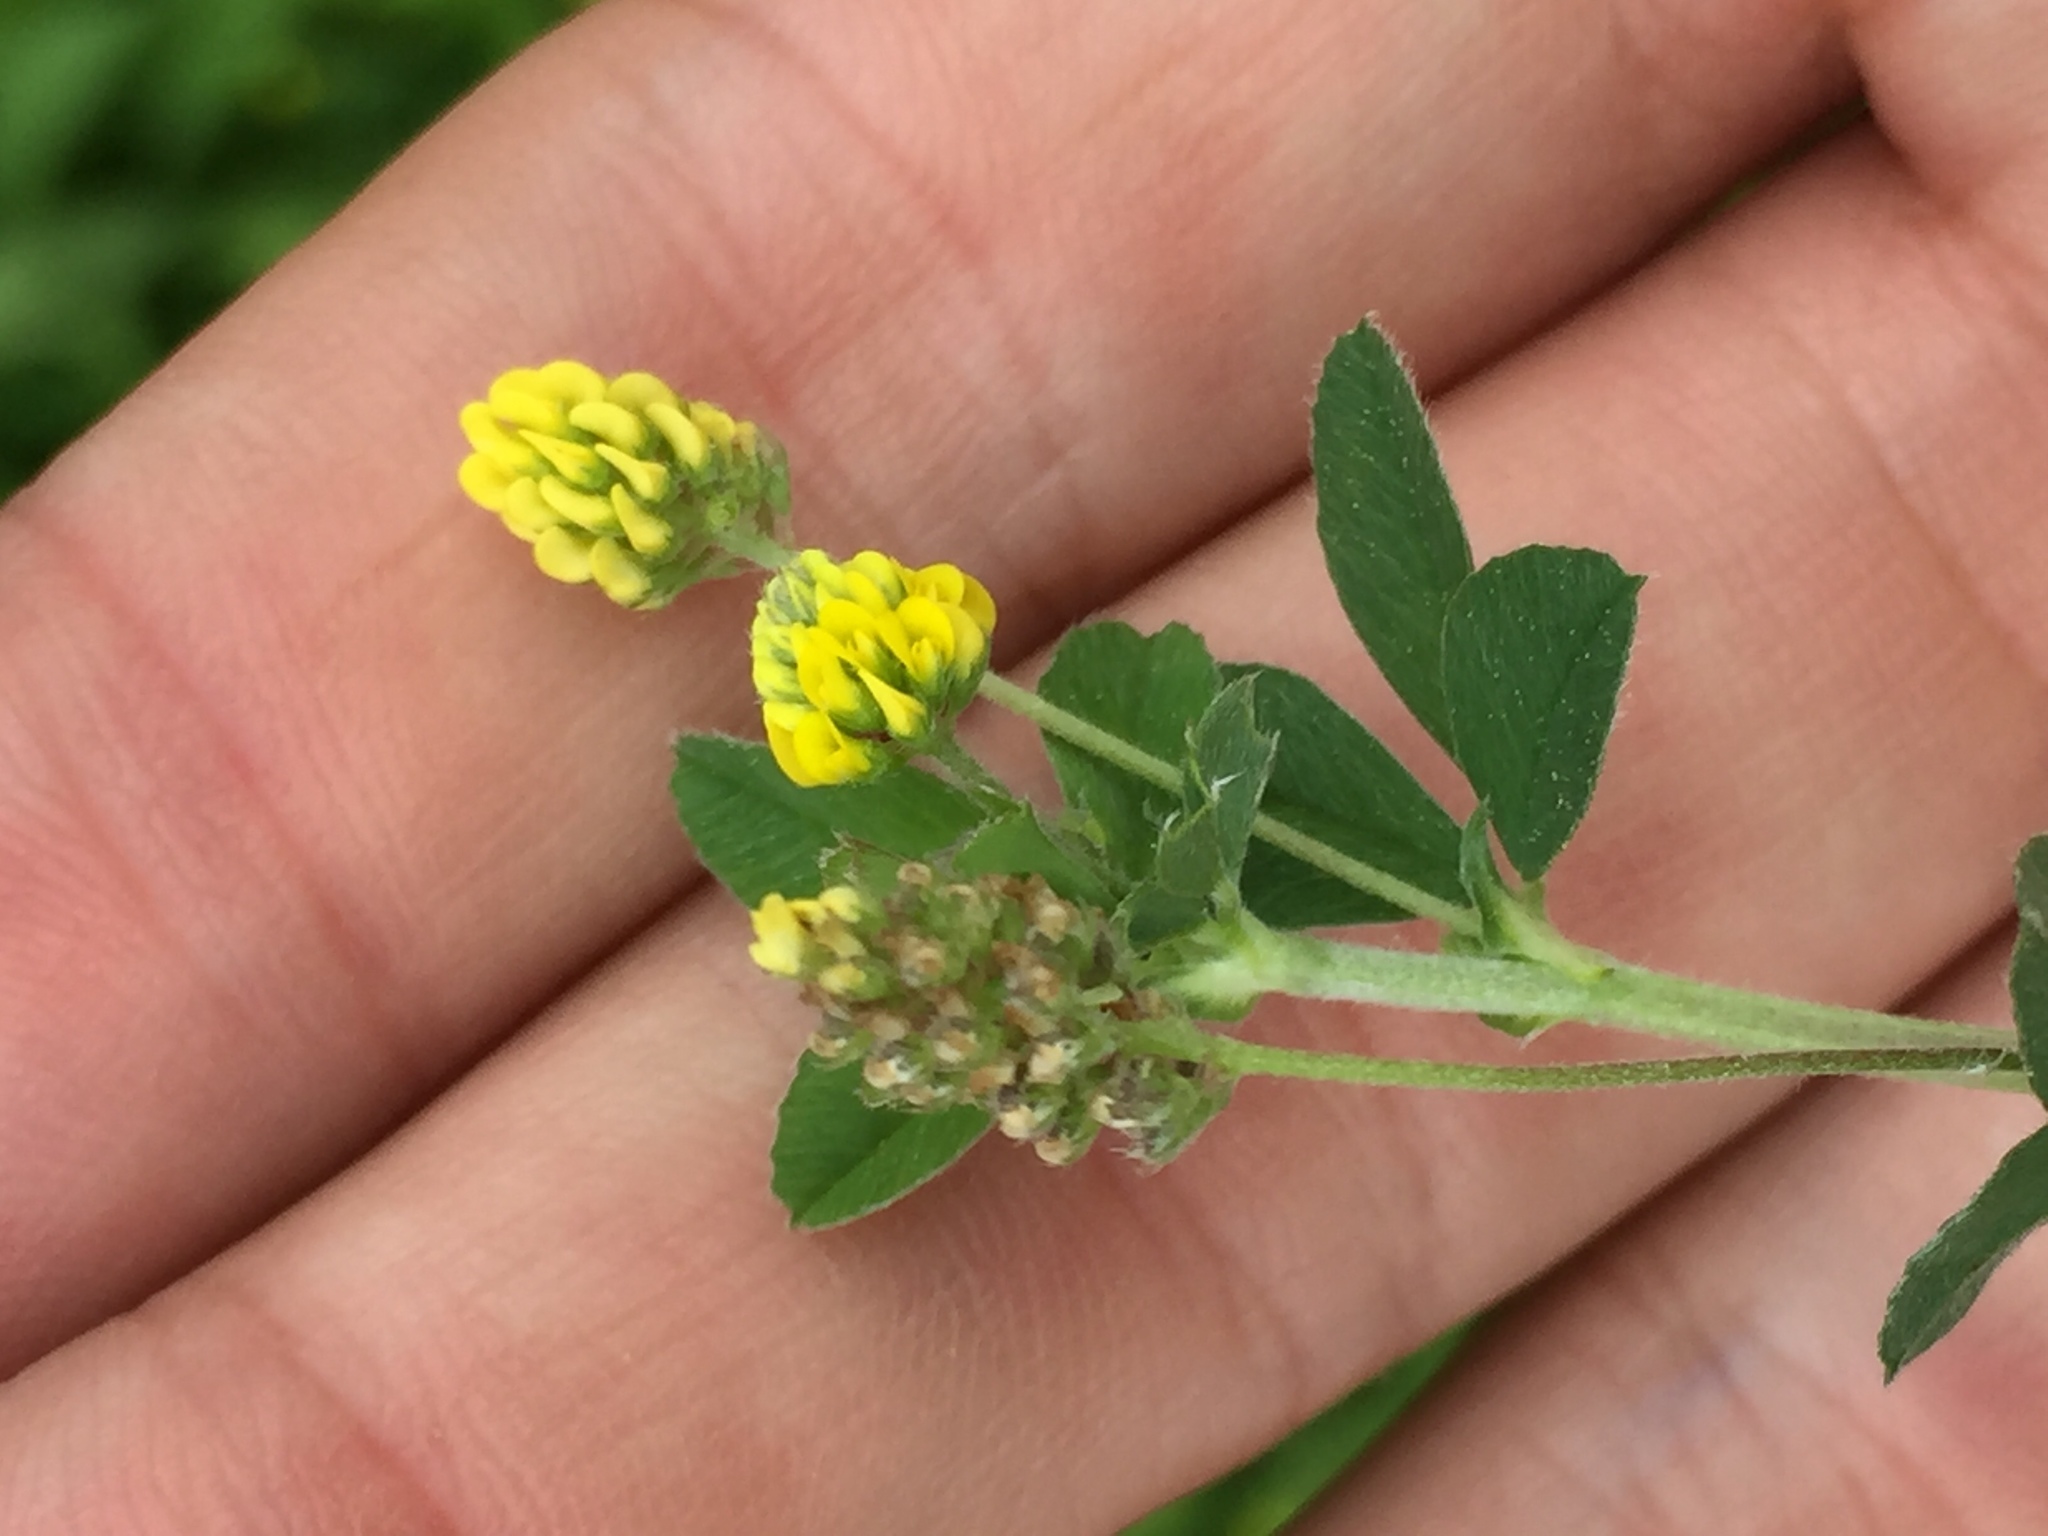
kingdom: Plantae
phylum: Tracheophyta
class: Magnoliopsida
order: Fabales
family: Fabaceae
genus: Medicago
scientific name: Medicago lupulina
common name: Black medick
